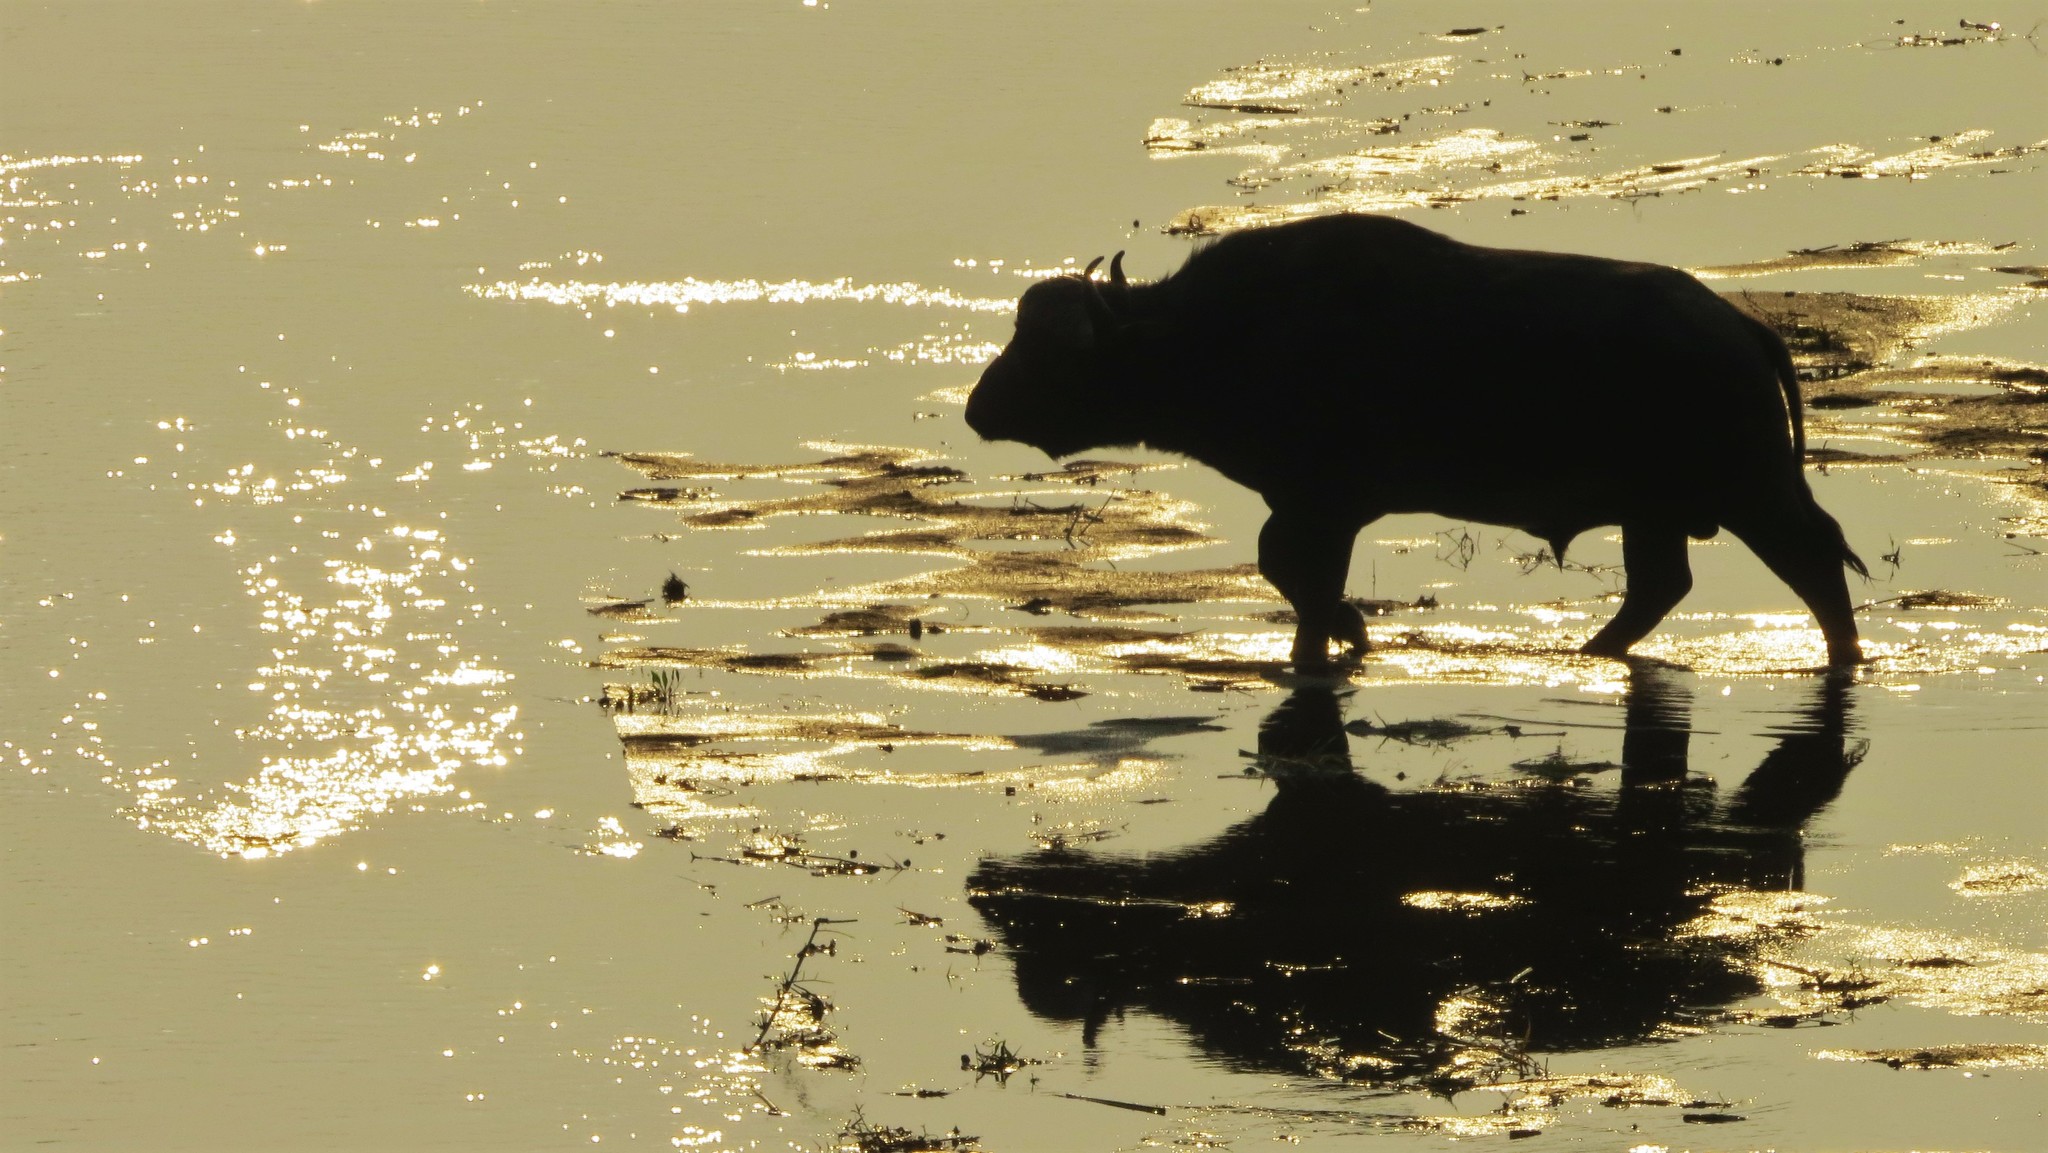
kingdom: Animalia
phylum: Chordata
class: Mammalia
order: Artiodactyla
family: Bovidae
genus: Syncerus
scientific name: Syncerus caffer
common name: African buffalo
